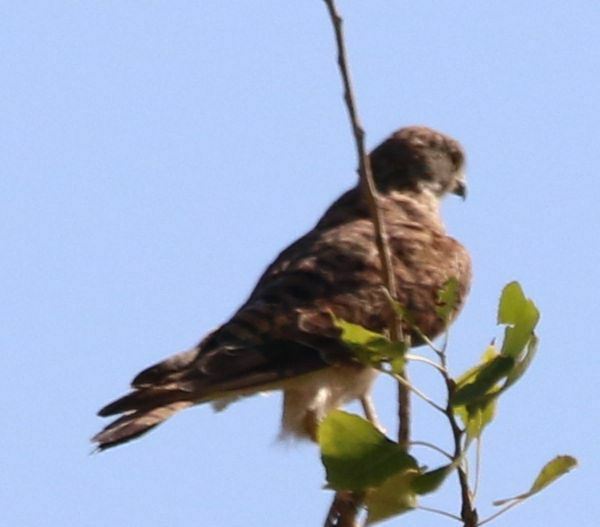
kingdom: Animalia
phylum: Chordata
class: Aves
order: Falconiformes
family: Falconidae
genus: Falco
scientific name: Falco tinnunculus
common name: Common kestrel
